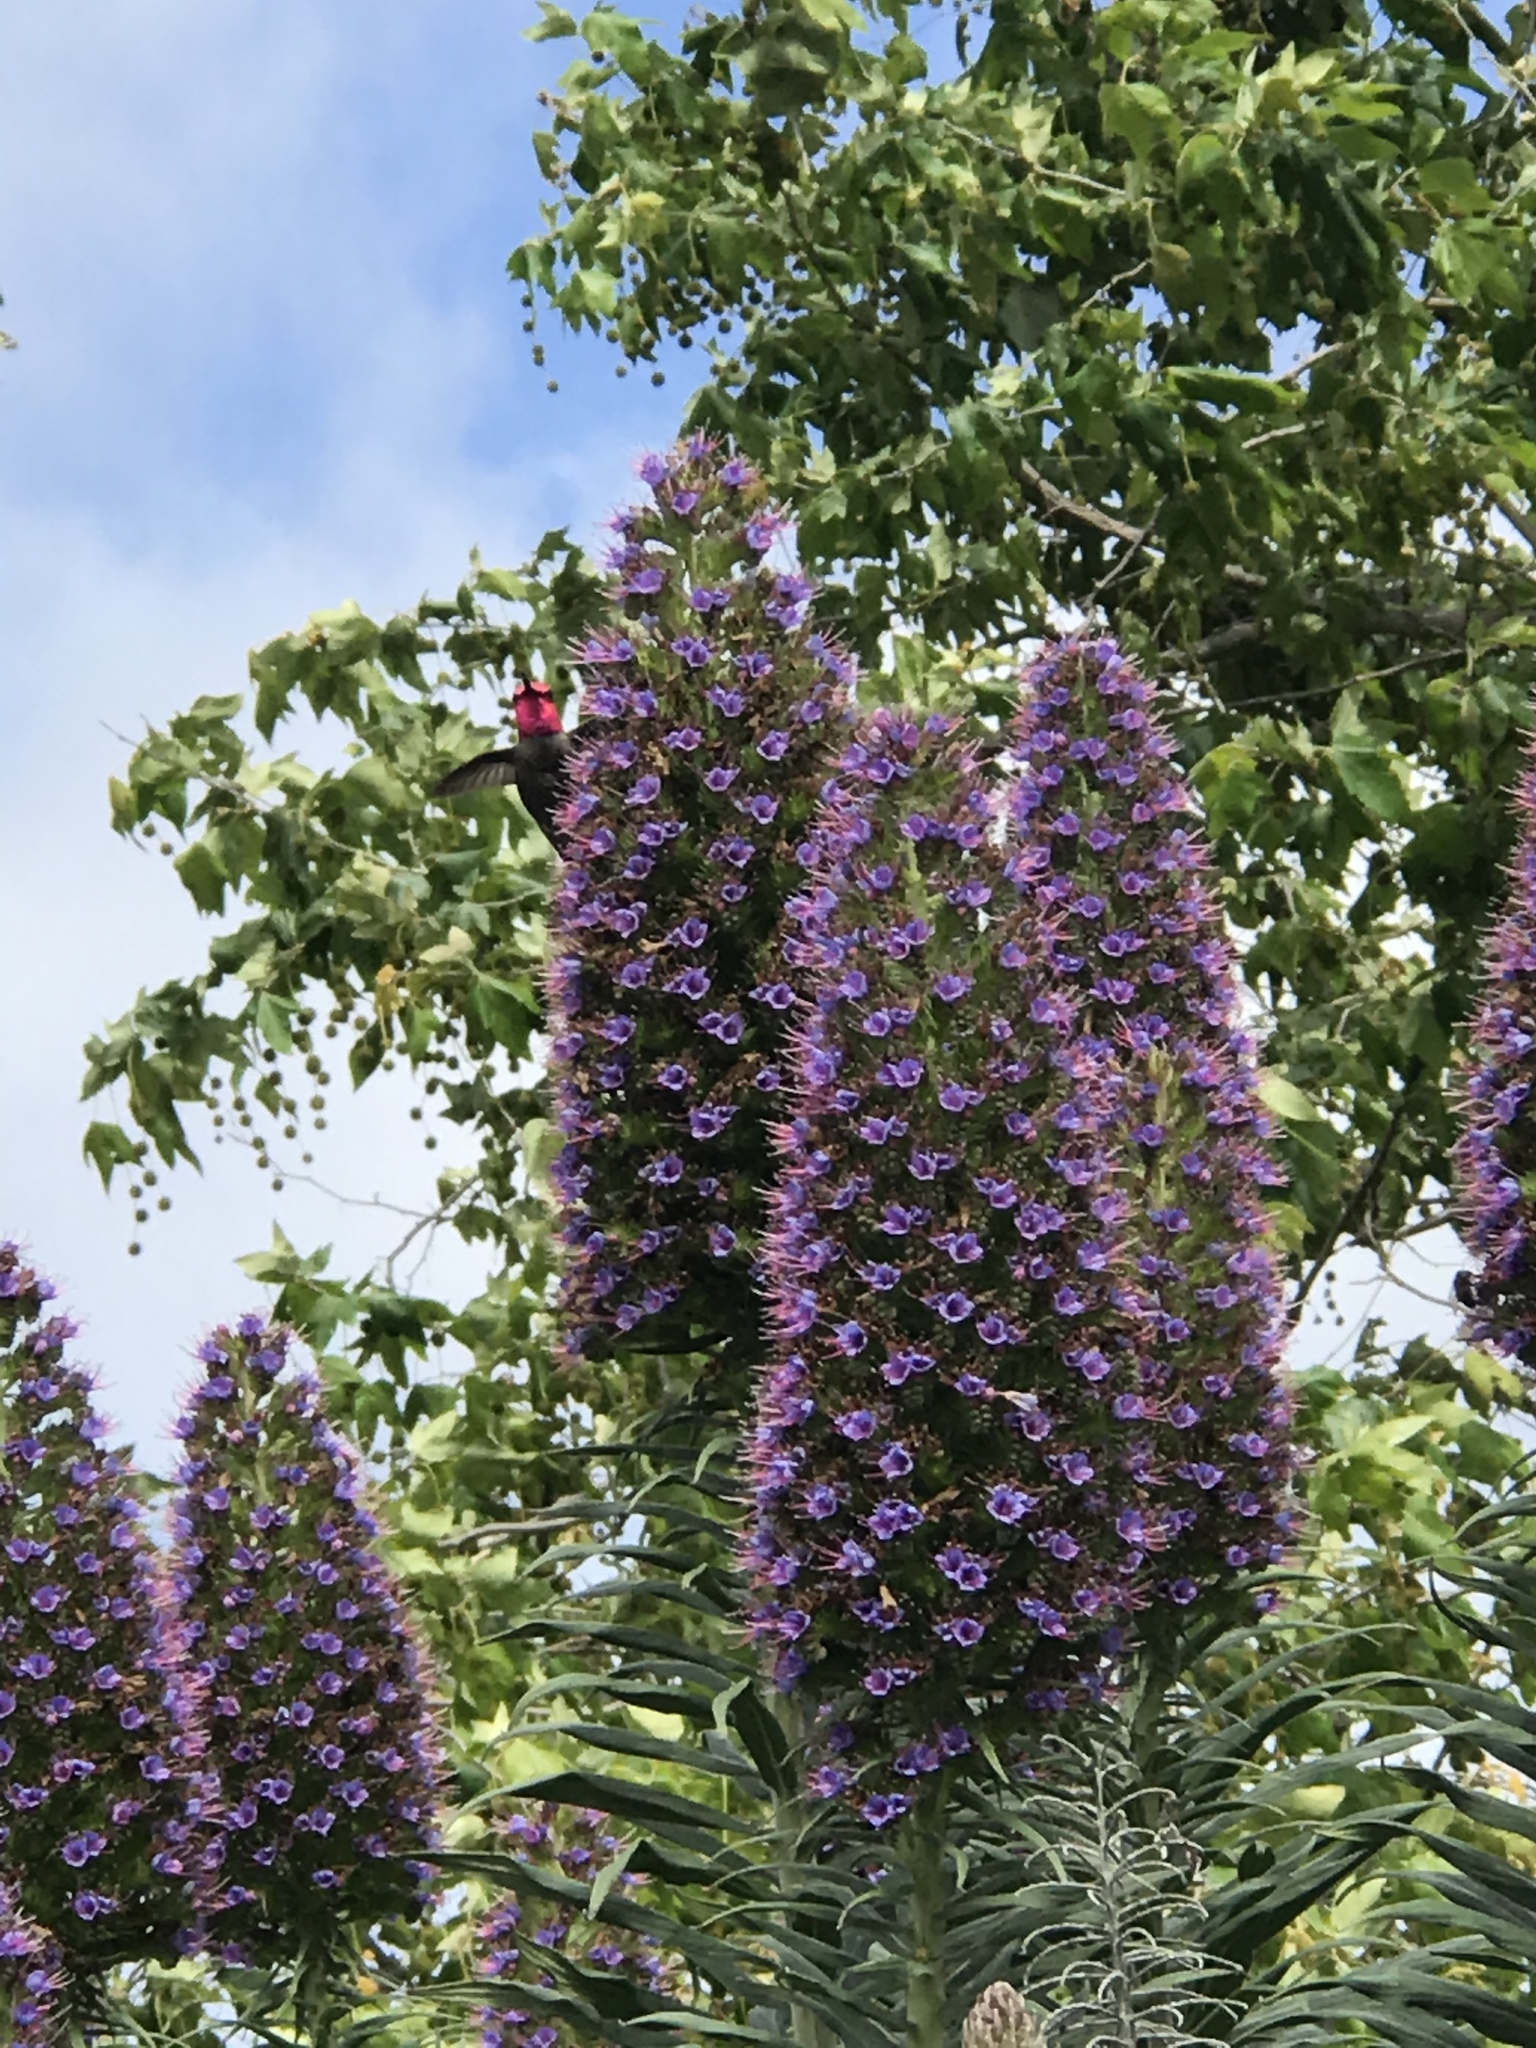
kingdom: Animalia
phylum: Chordata
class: Aves
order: Apodiformes
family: Trochilidae
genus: Calypte
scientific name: Calypte anna
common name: Anna's hummingbird
